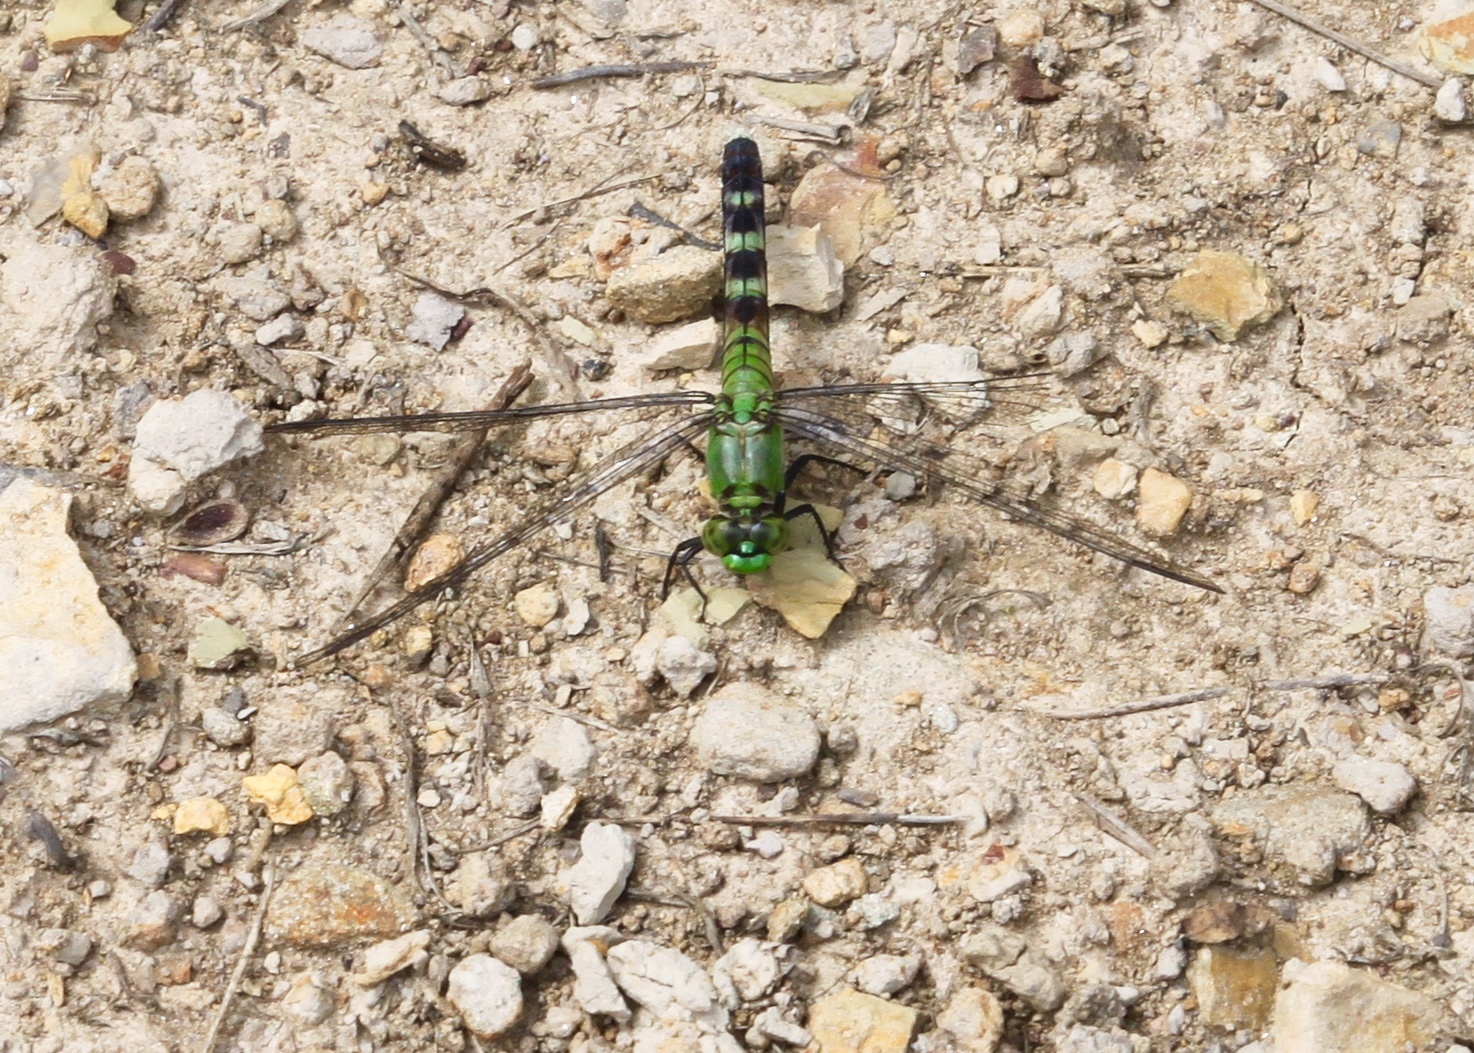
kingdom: Animalia
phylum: Arthropoda
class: Insecta
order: Odonata
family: Libellulidae
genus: Erythemis
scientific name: Erythemis simplicicollis
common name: Eastern pondhawk
